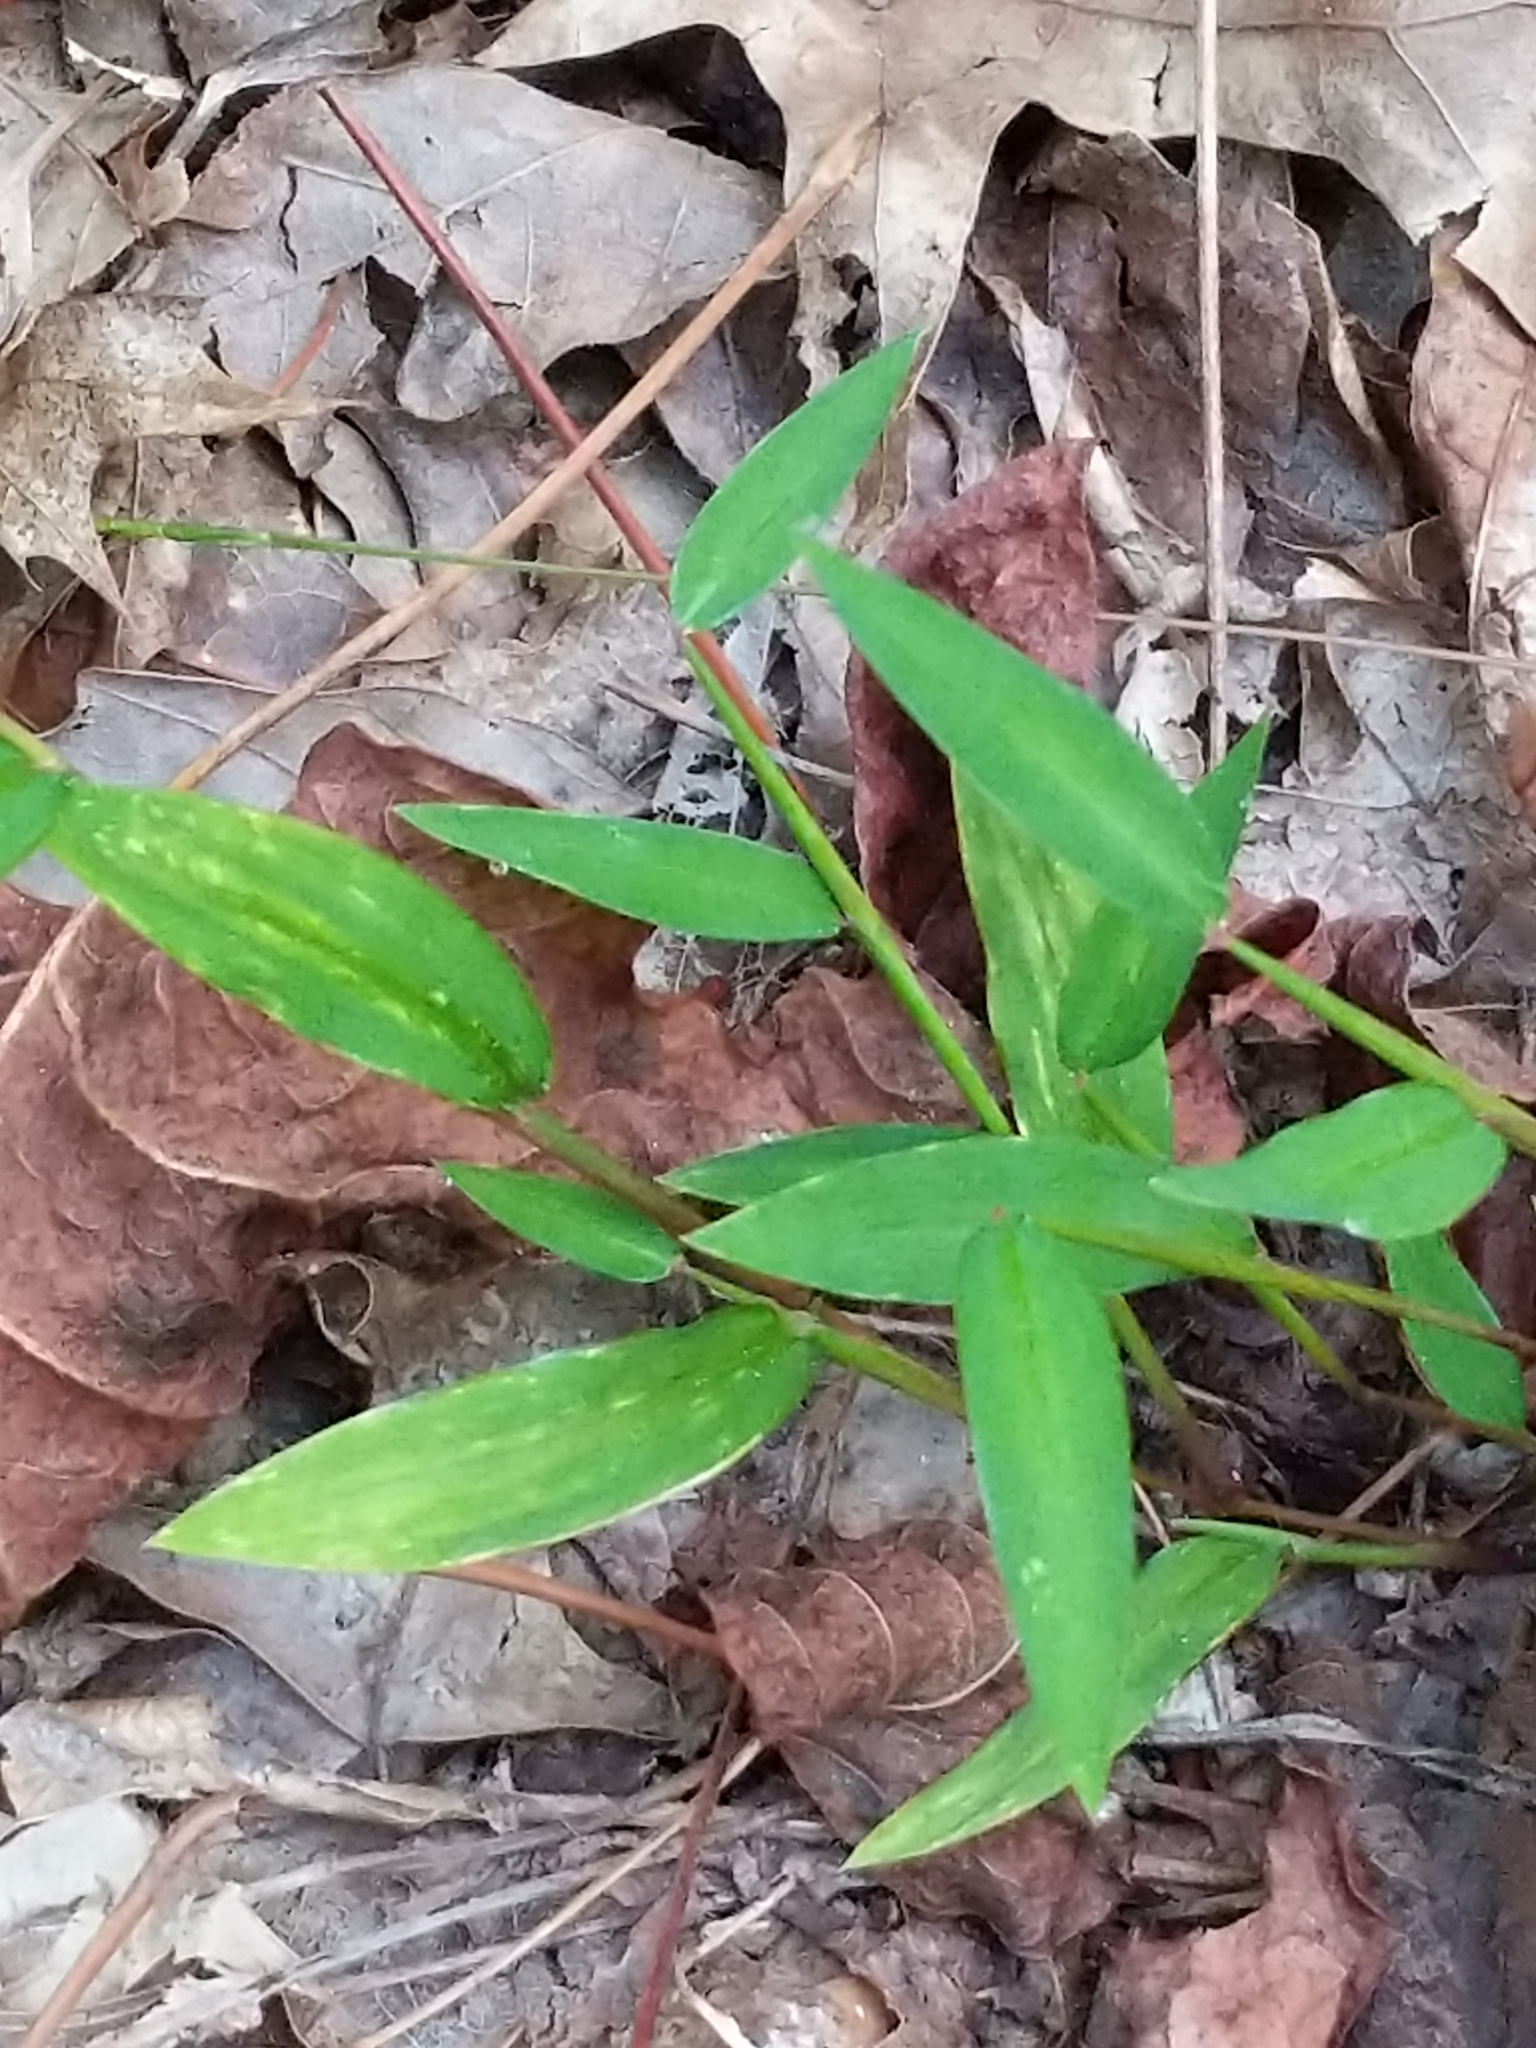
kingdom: Plantae
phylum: Tracheophyta
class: Liliopsida
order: Poales
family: Poaceae
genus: Microstegium
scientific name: Microstegium vimineum
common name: Japanese stiltgrass
